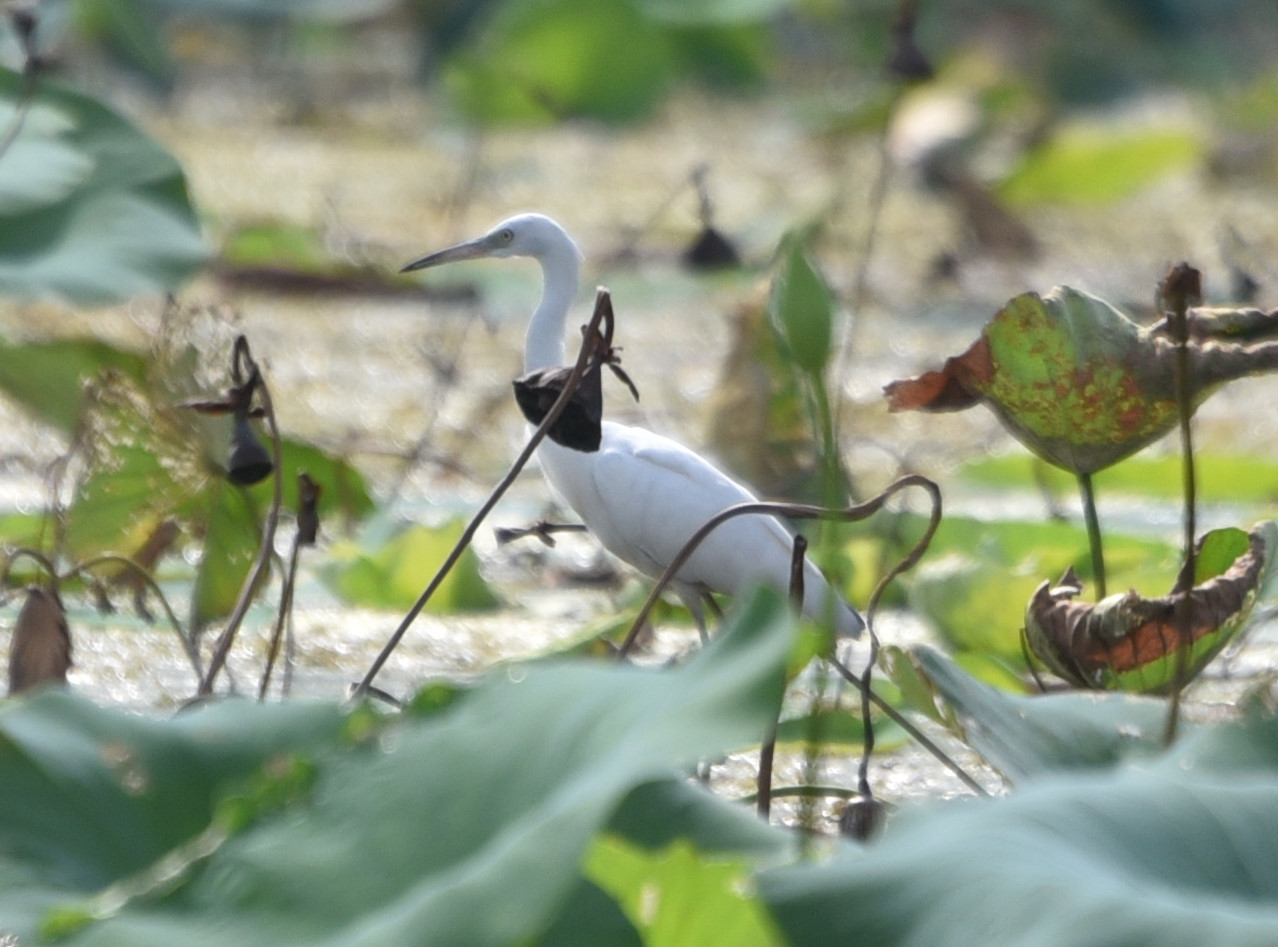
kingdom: Animalia
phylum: Chordata
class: Aves
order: Pelecaniformes
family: Ardeidae
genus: Egretta
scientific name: Egretta caerulea
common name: Little blue heron
